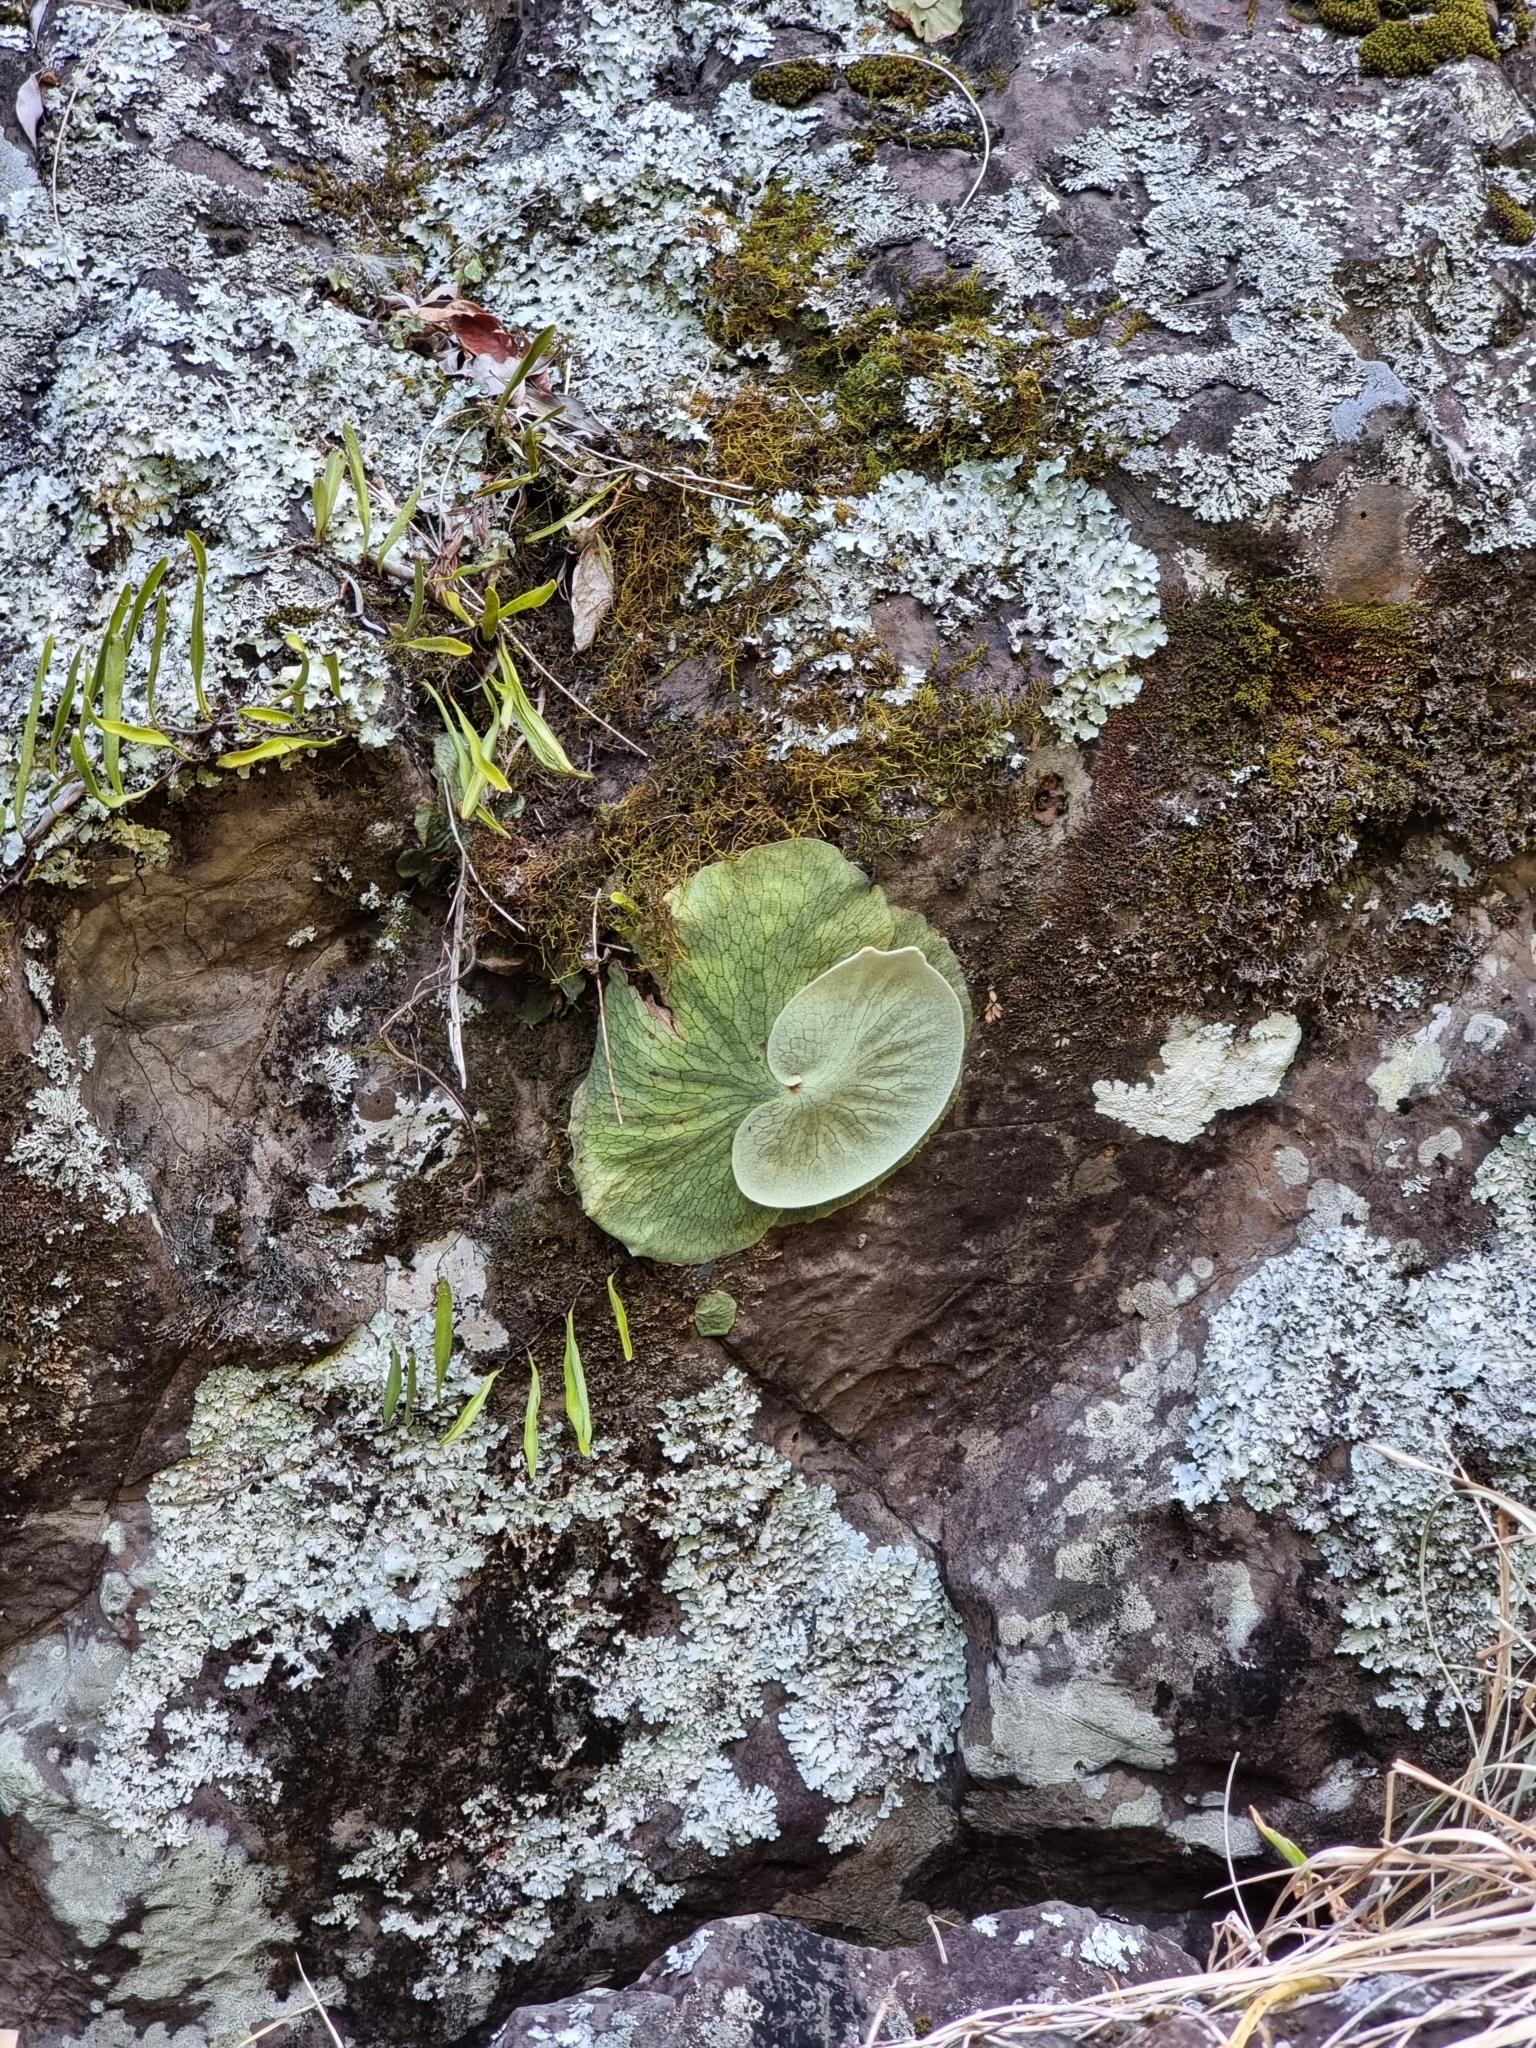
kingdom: Plantae
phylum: Tracheophyta
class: Polypodiopsida
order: Polypodiales
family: Polypodiaceae
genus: Platycerium
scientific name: Platycerium superbum
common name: Staghorn fern
